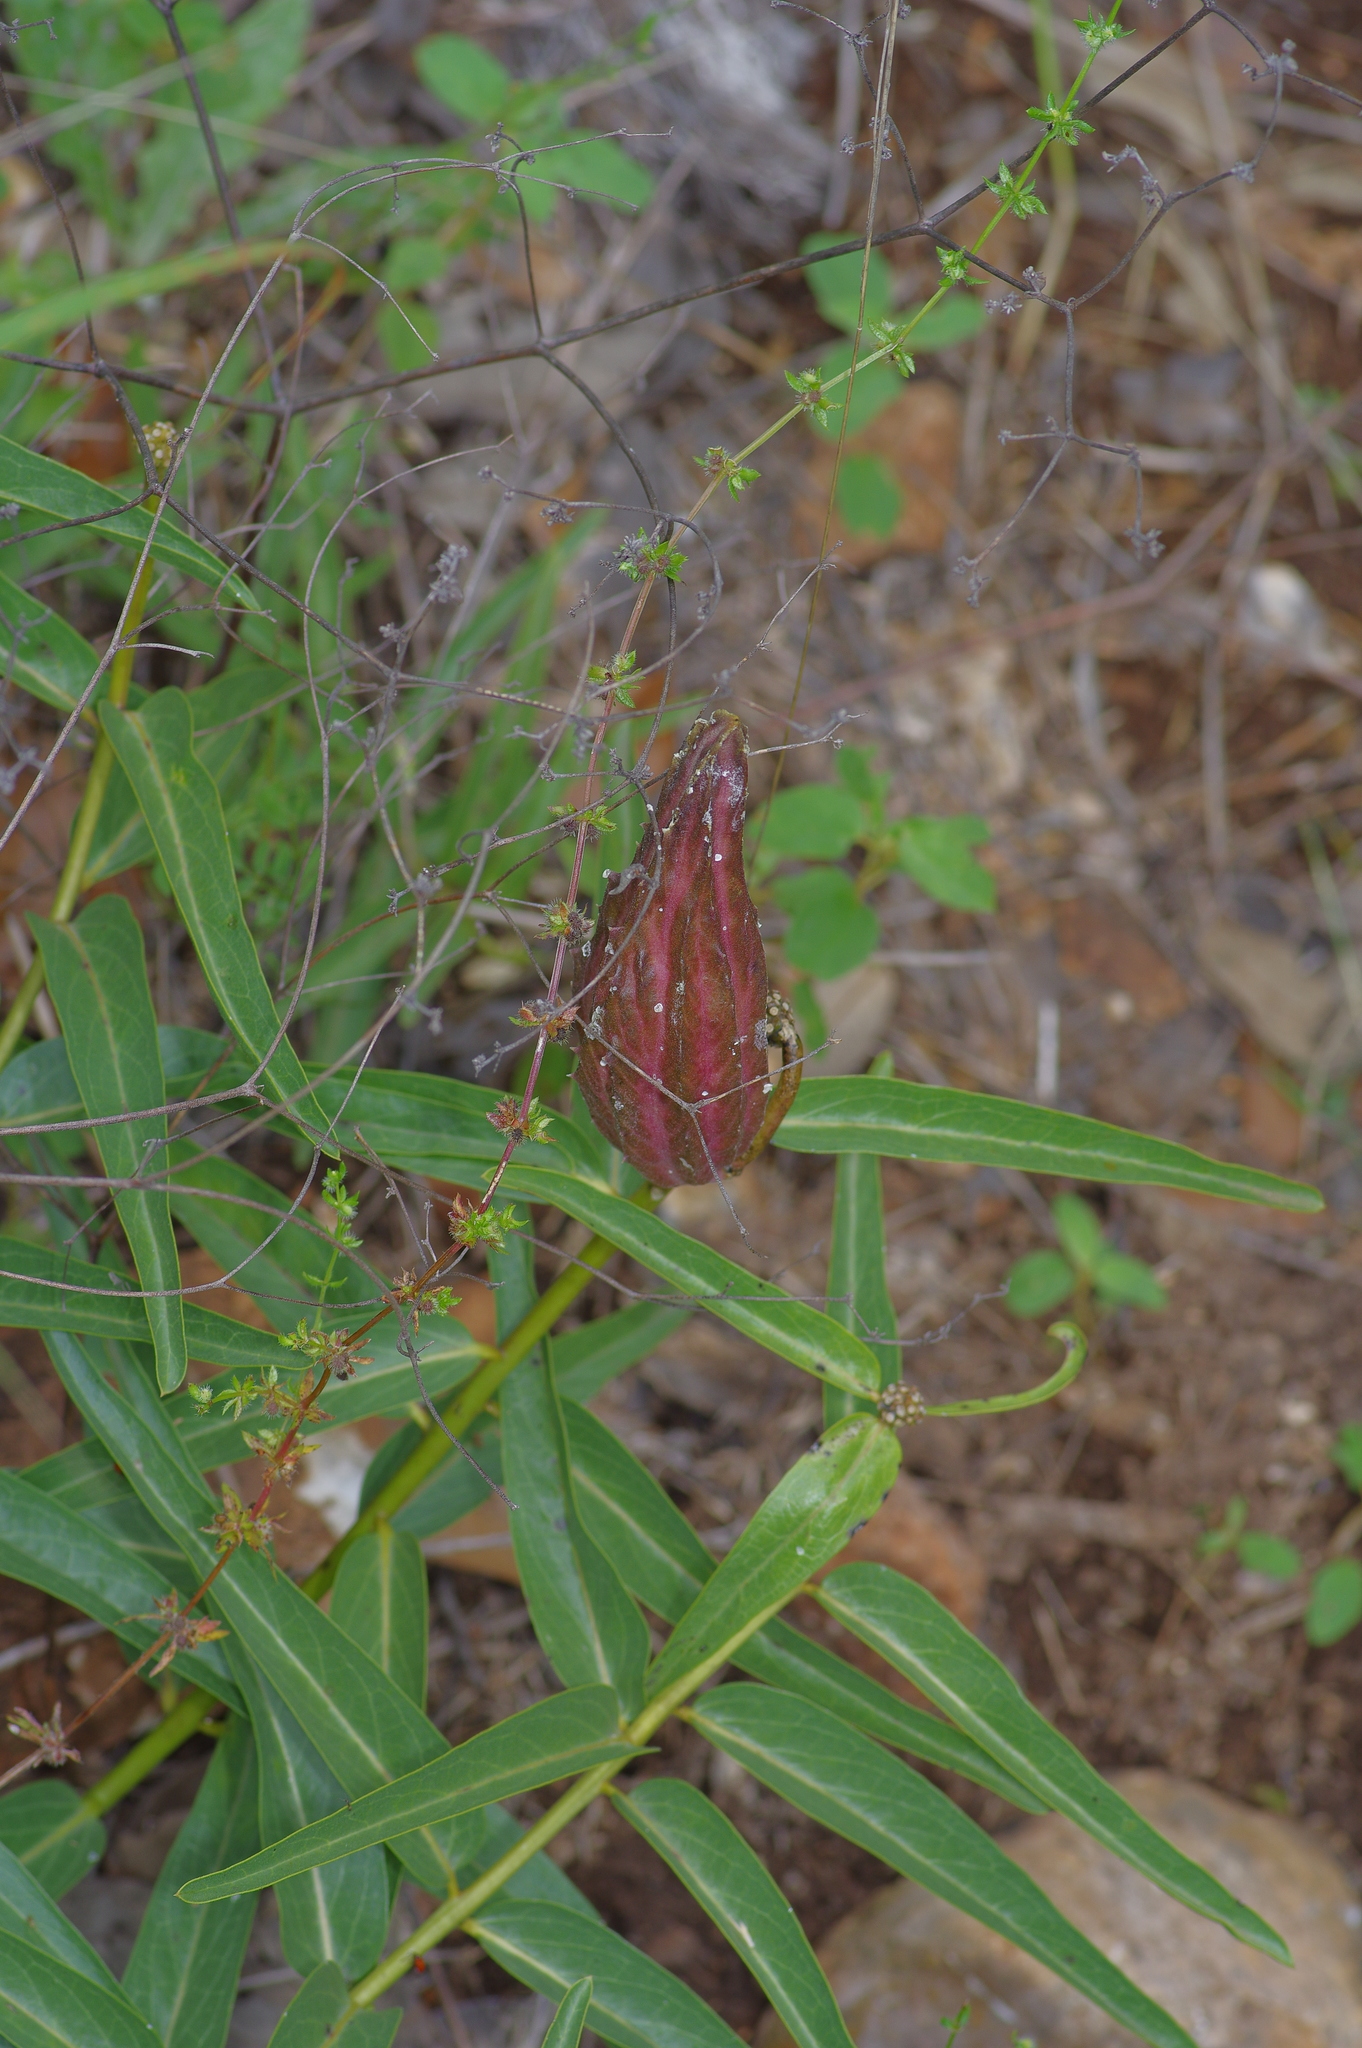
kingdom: Plantae
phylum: Tracheophyta
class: Magnoliopsida
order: Gentianales
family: Apocynaceae
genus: Asclepias
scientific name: Asclepias asperula
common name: Antelope horns
